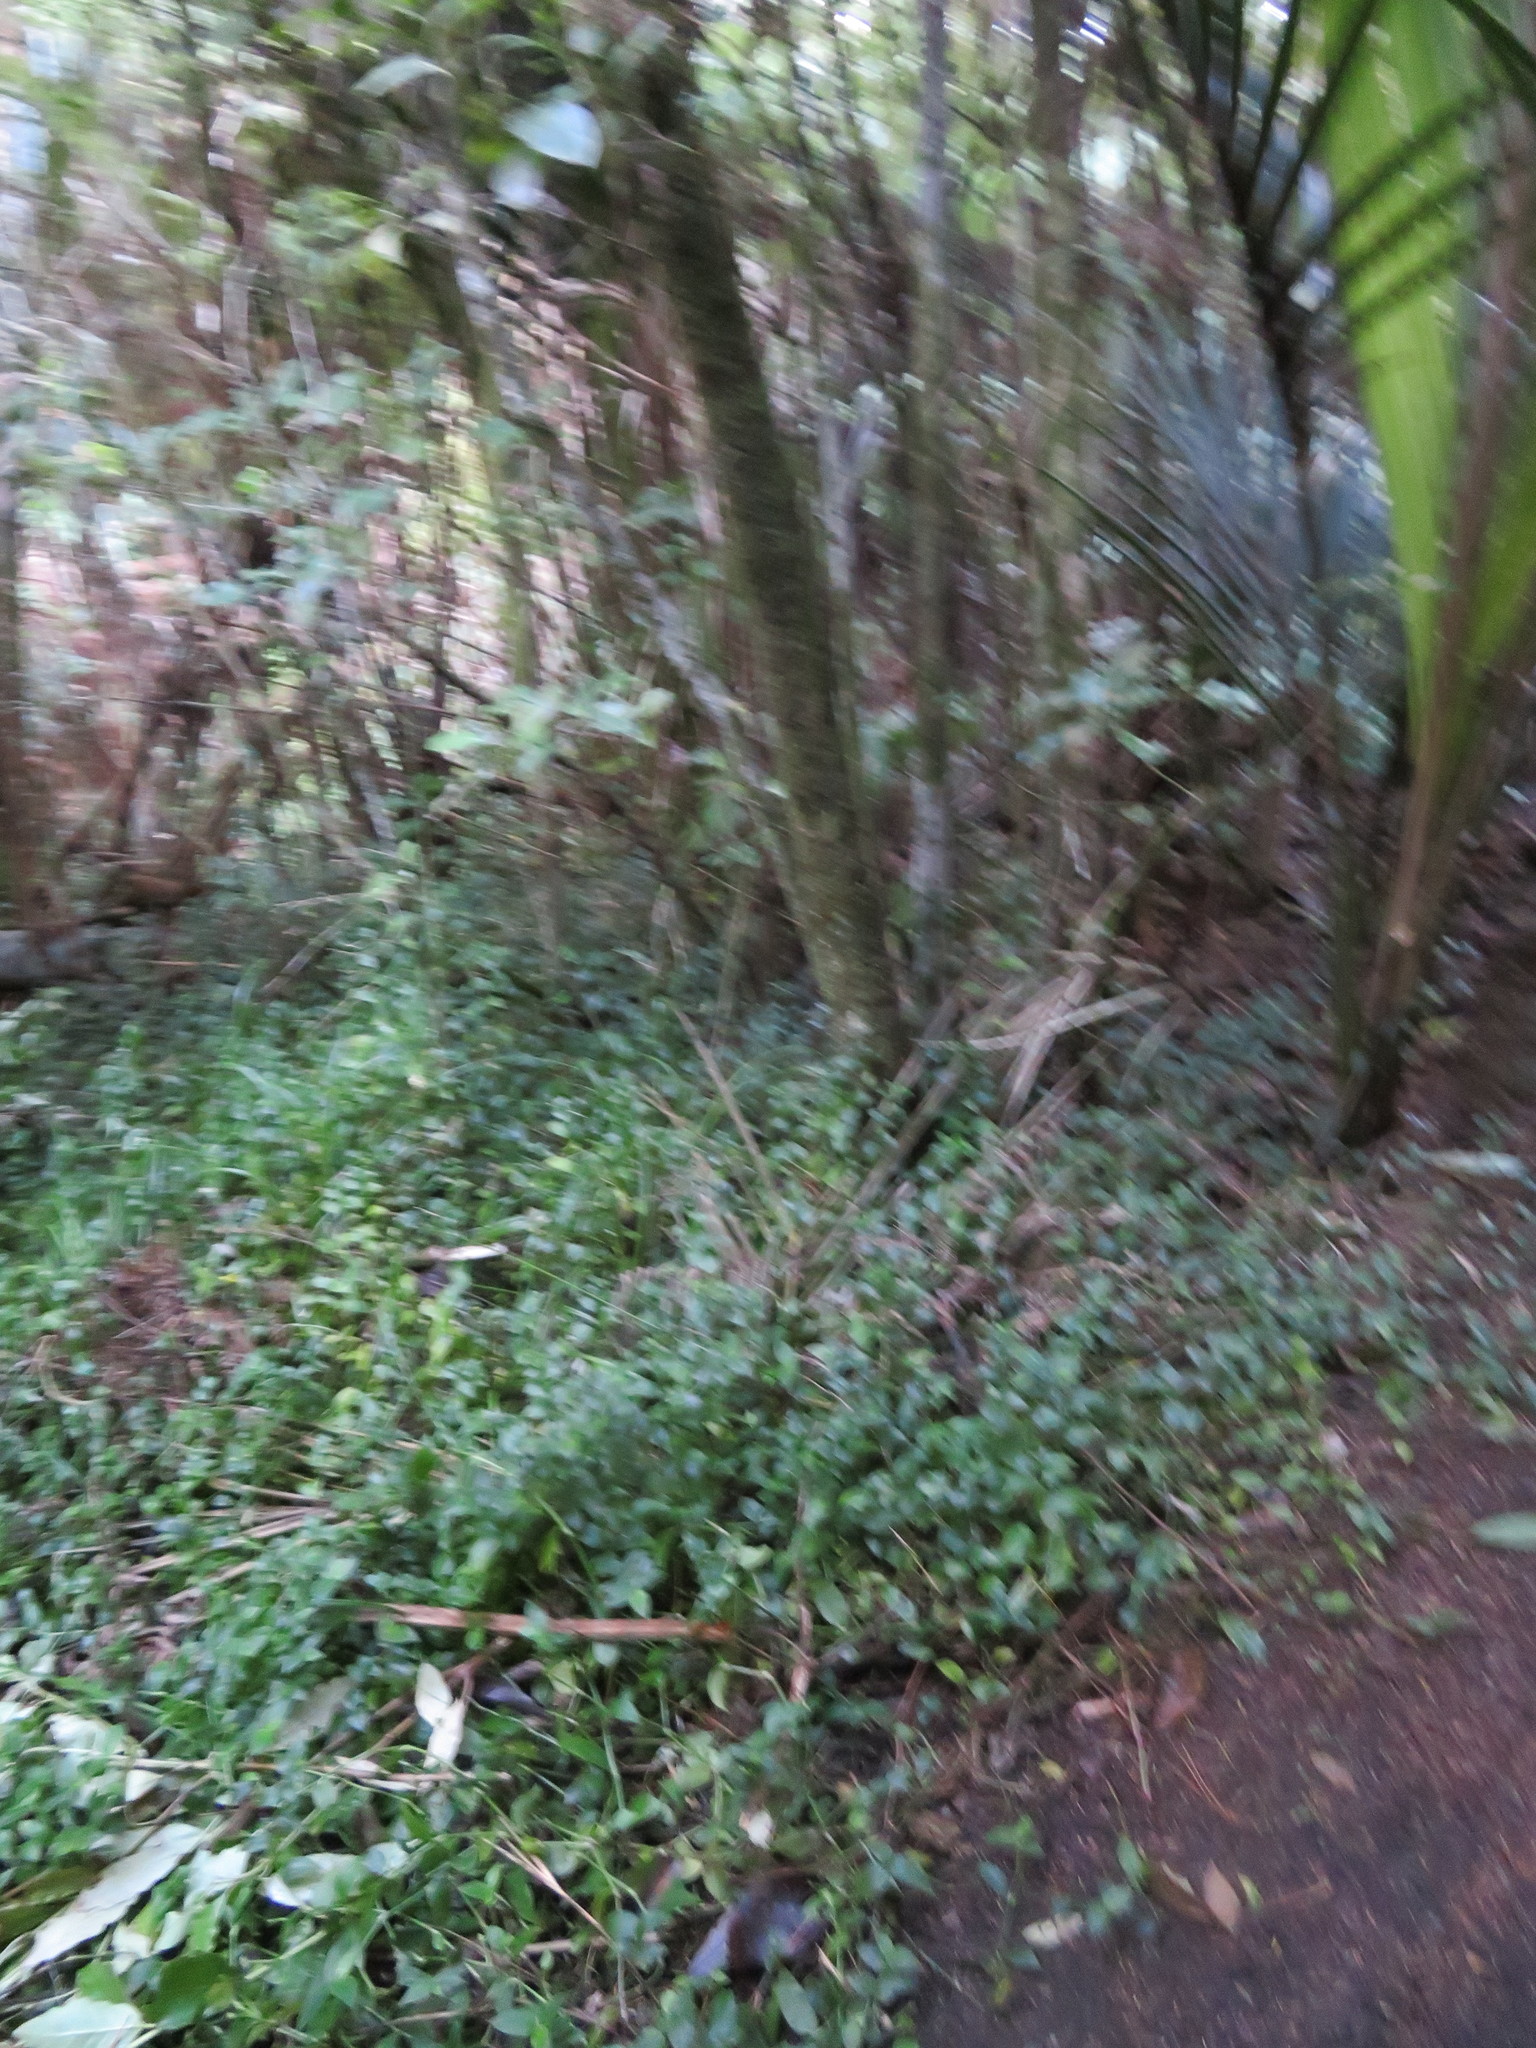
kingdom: Plantae
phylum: Tracheophyta
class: Liliopsida
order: Commelinales
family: Commelinaceae
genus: Tradescantia
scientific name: Tradescantia fluminensis
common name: Wandering-jew
